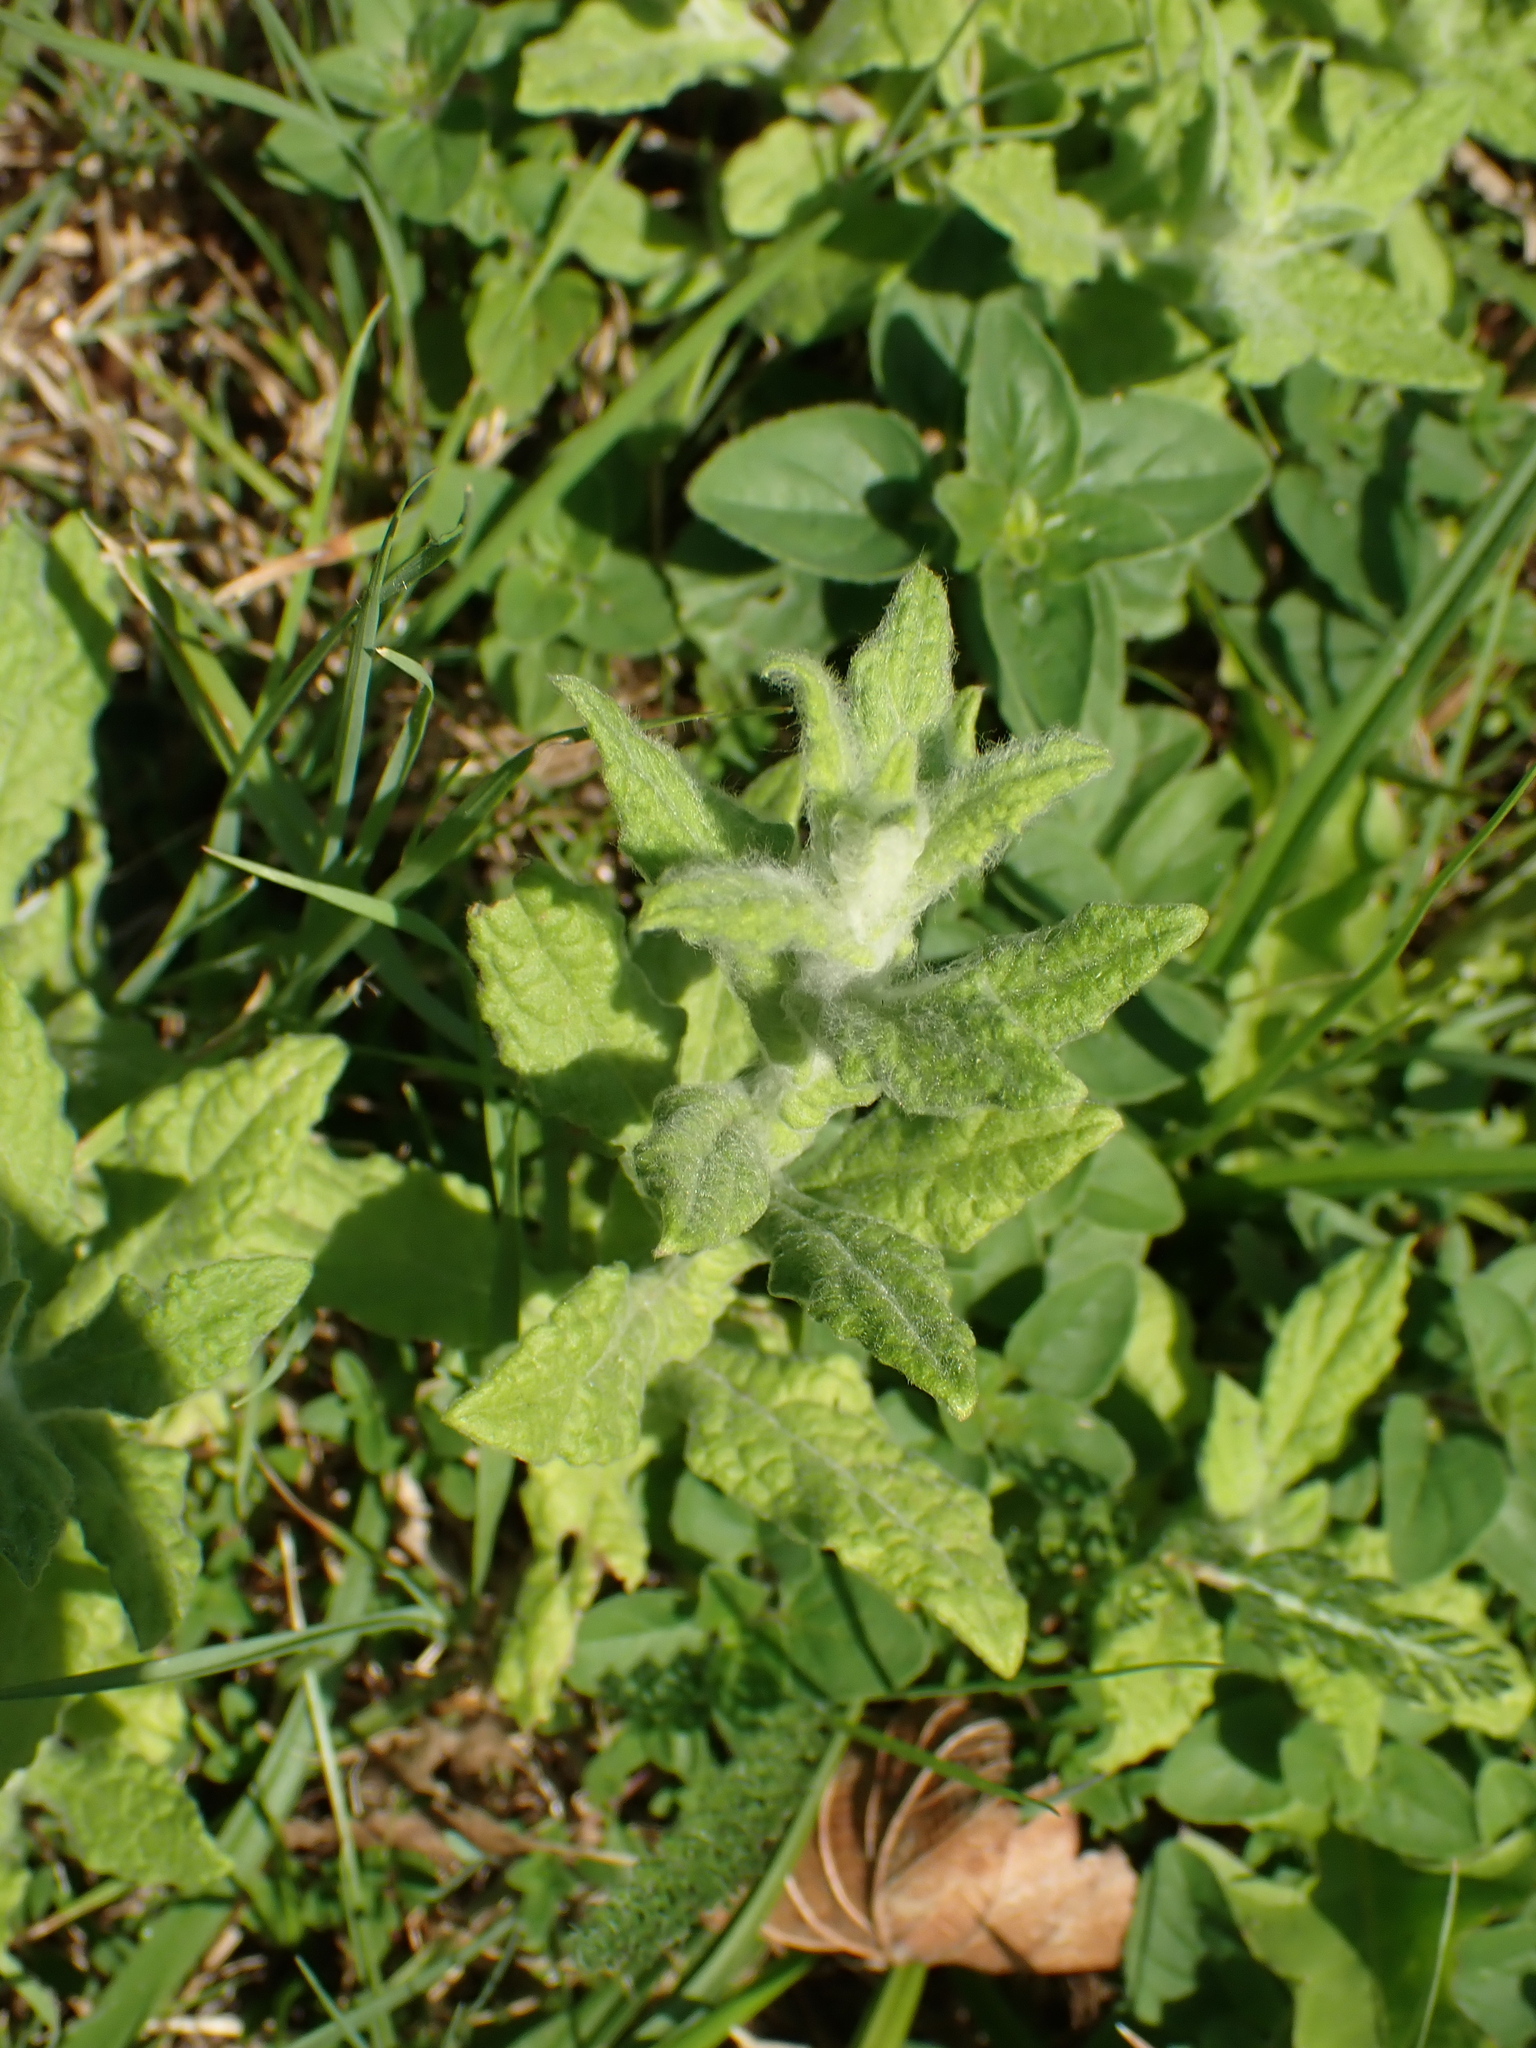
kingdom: Plantae
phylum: Tracheophyta
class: Magnoliopsida
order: Asterales
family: Asteraceae
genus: Pulicaria
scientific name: Pulicaria dysenterica
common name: Common fleabane
